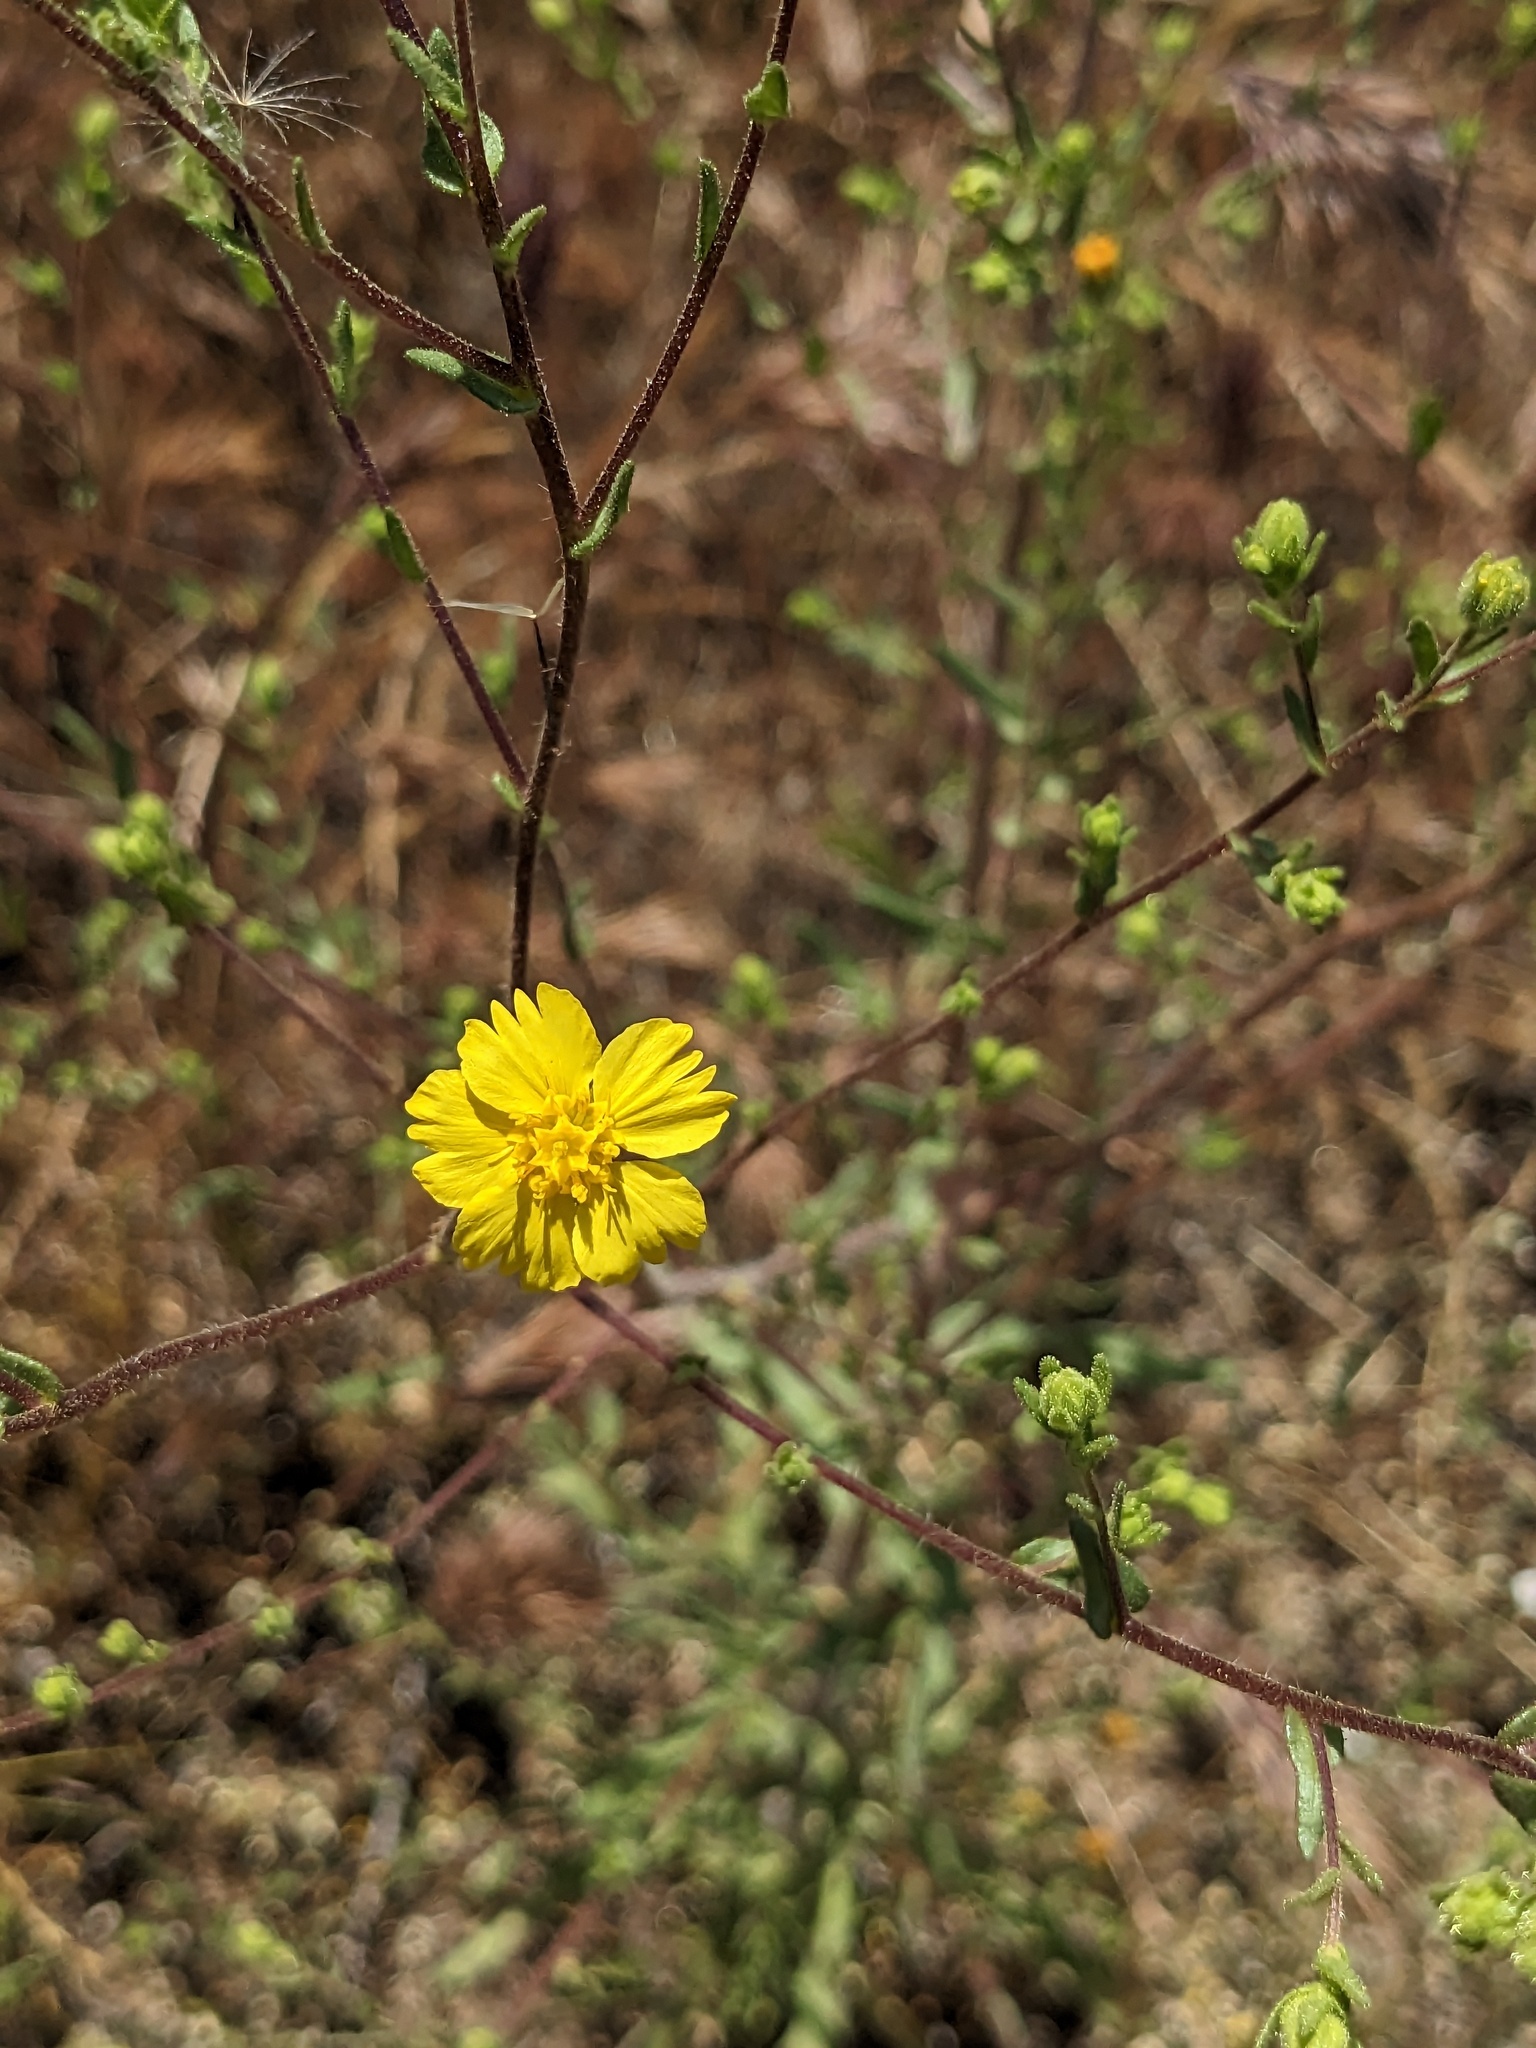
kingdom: Plantae
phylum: Tracheophyta
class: Magnoliopsida
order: Asterales
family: Asteraceae
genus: Deinandra
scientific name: Deinandra kelloggii
